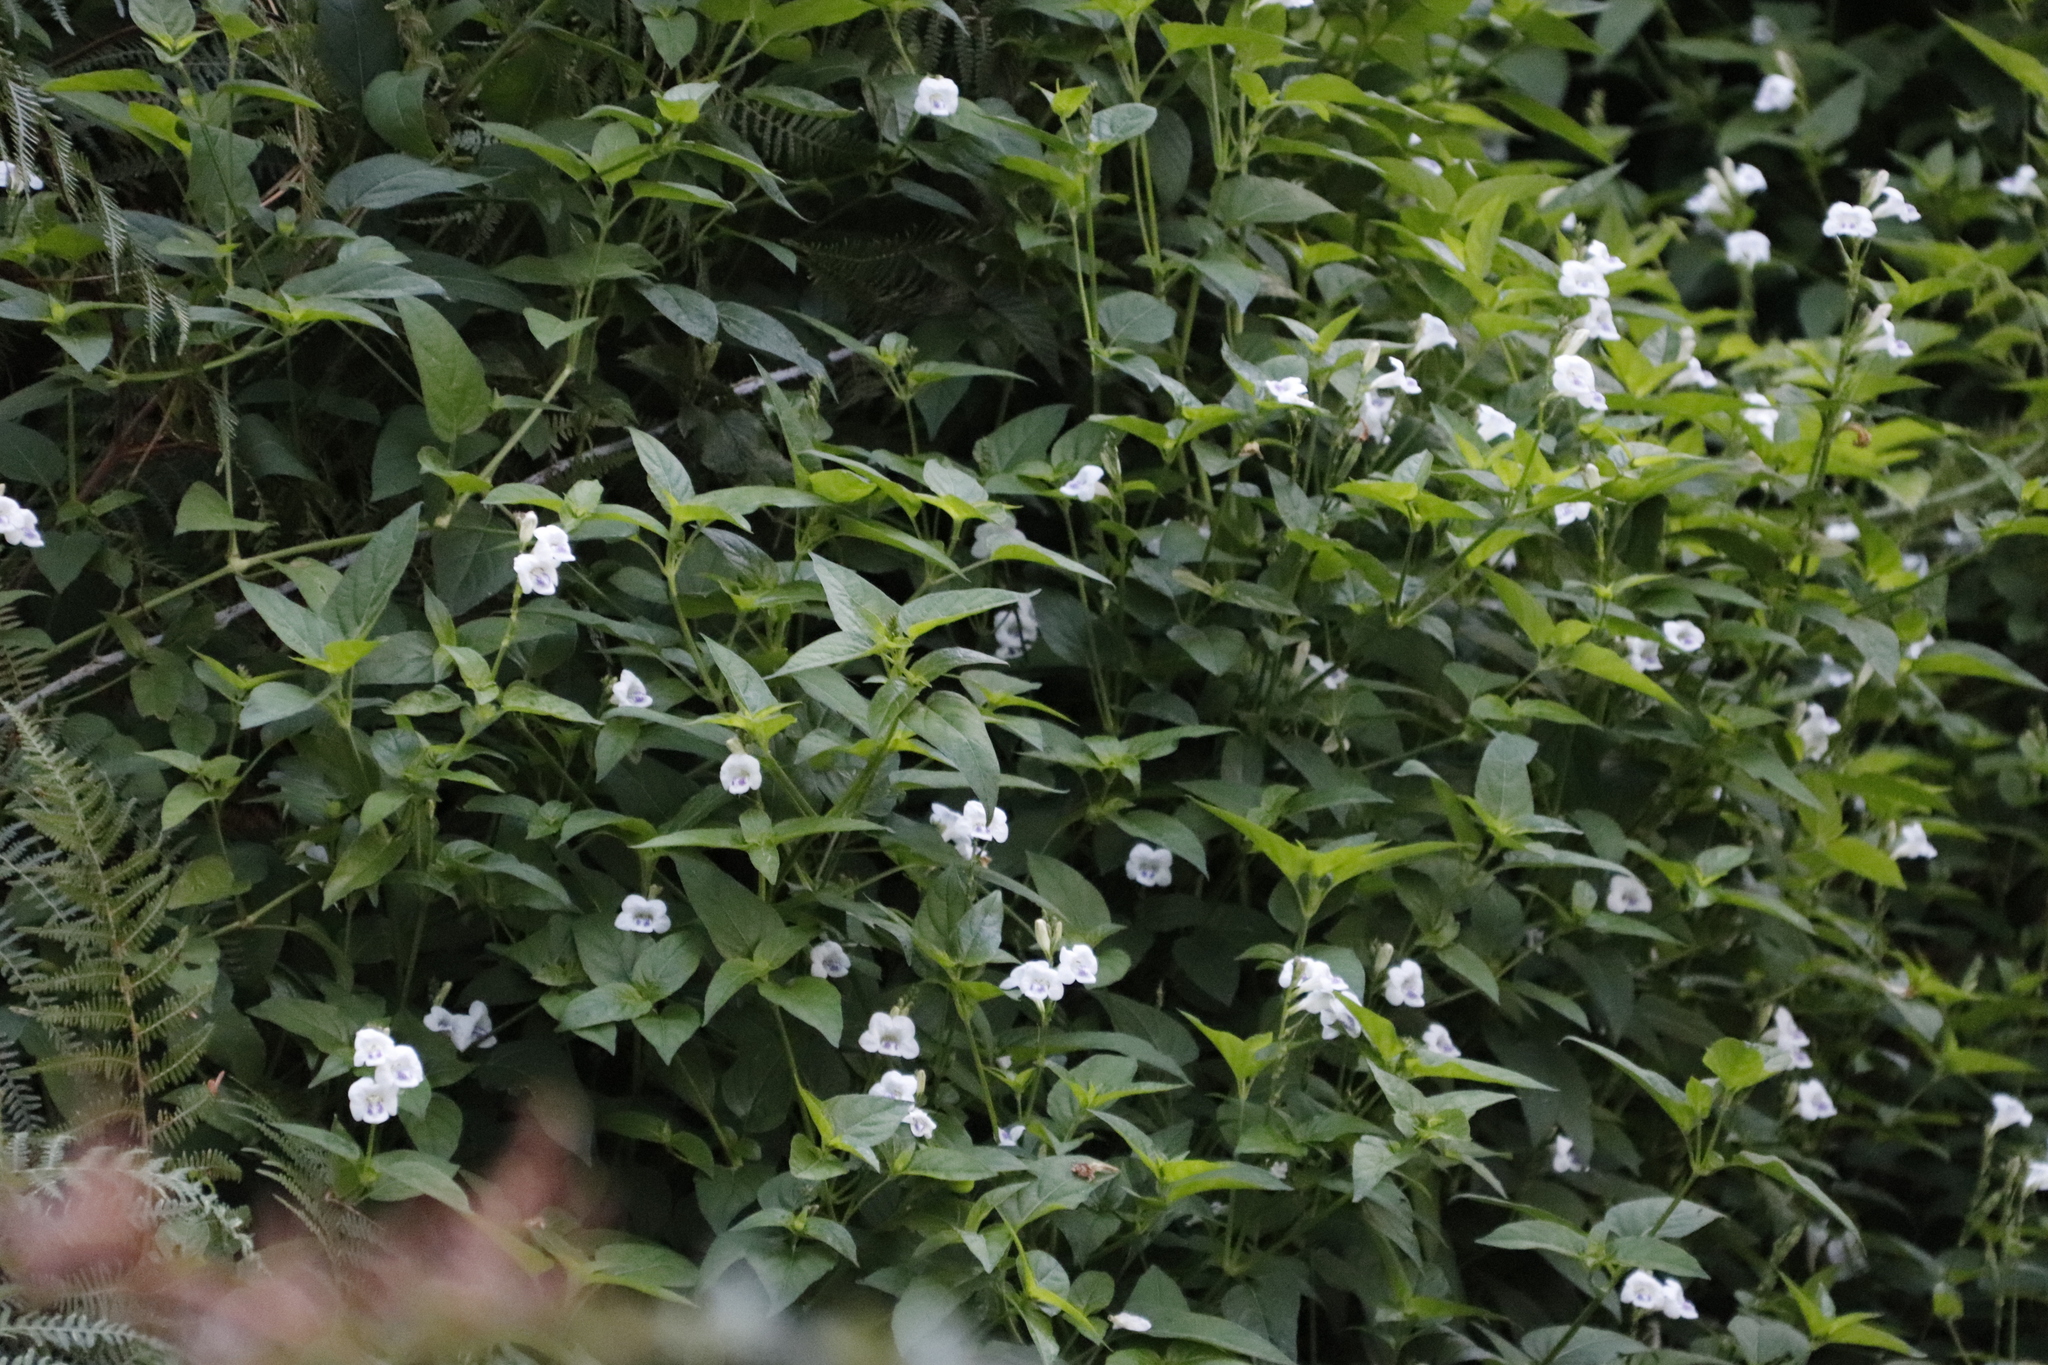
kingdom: Plantae
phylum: Tracheophyta
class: Magnoliopsida
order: Lamiales
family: Acanthaceae
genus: Asystasia
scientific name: Asystasia intrusa
